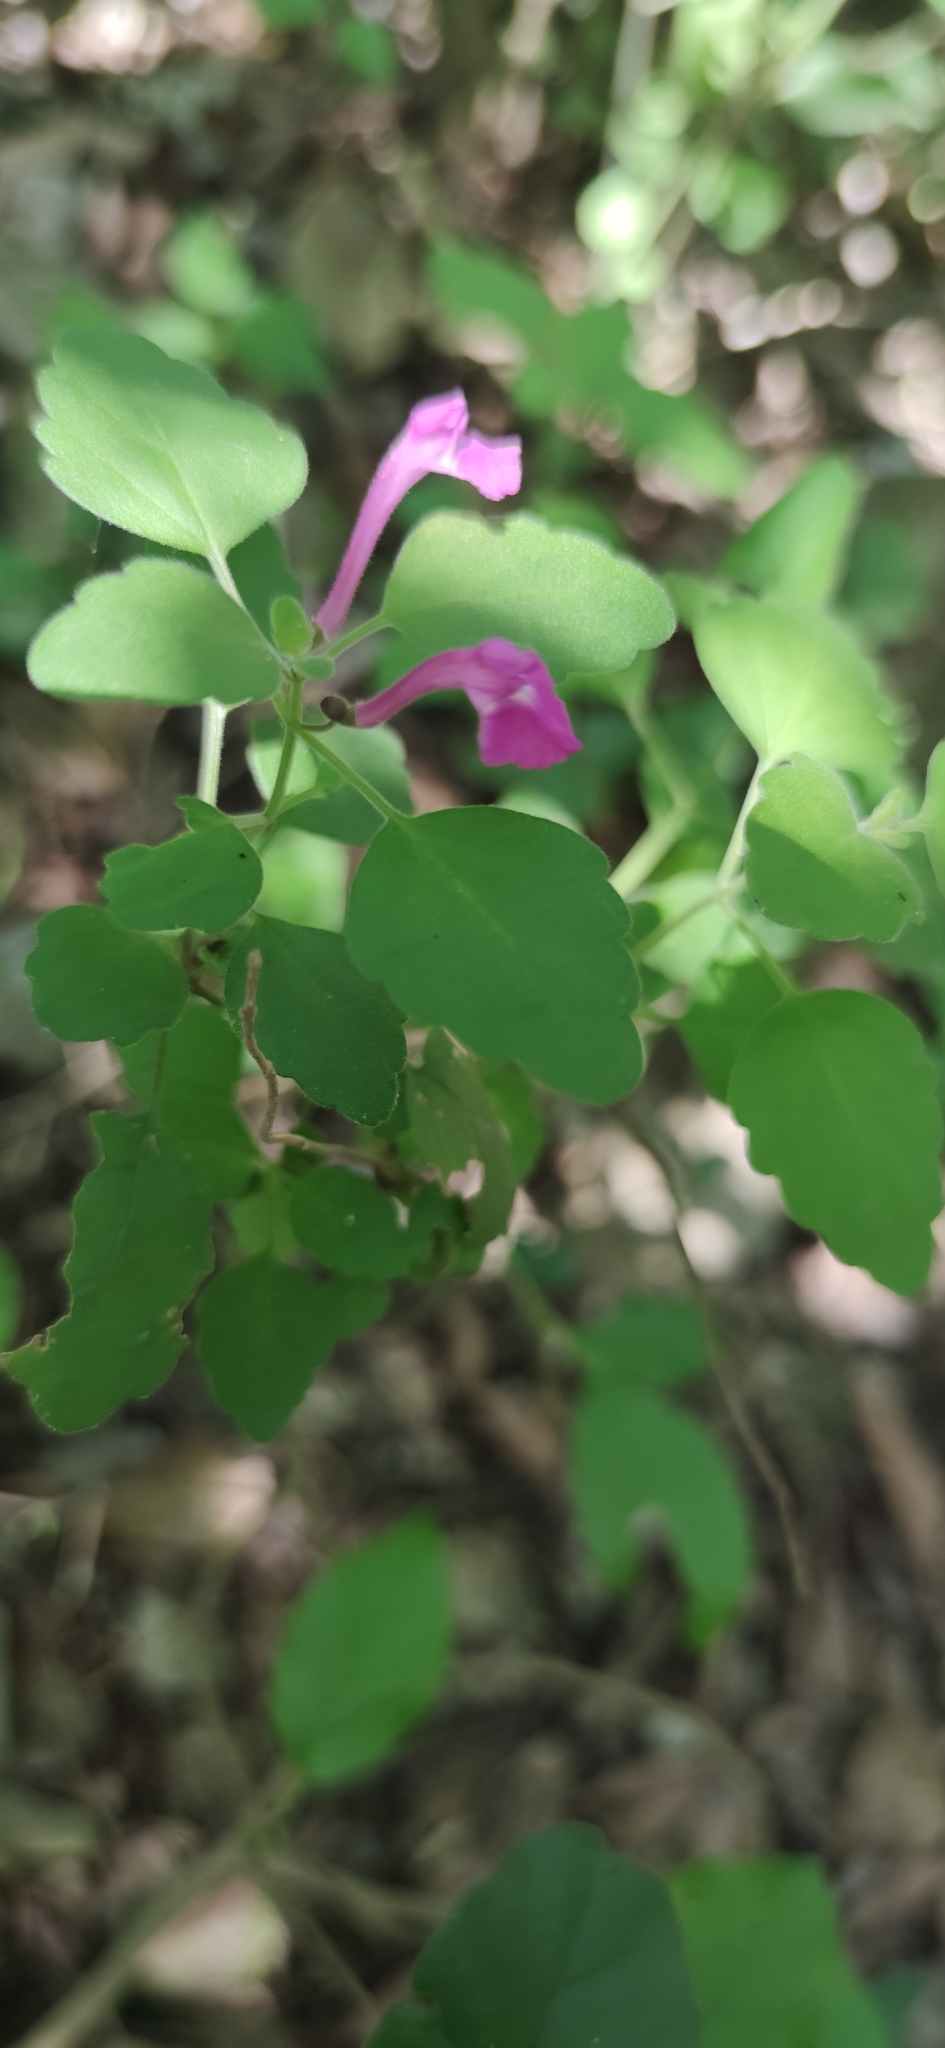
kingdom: Plantae
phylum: Tracheophyta
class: Magnoliopsida
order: Lamiales
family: Lamiaceae
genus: Scutellaria
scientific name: Scutellaria seleriana
